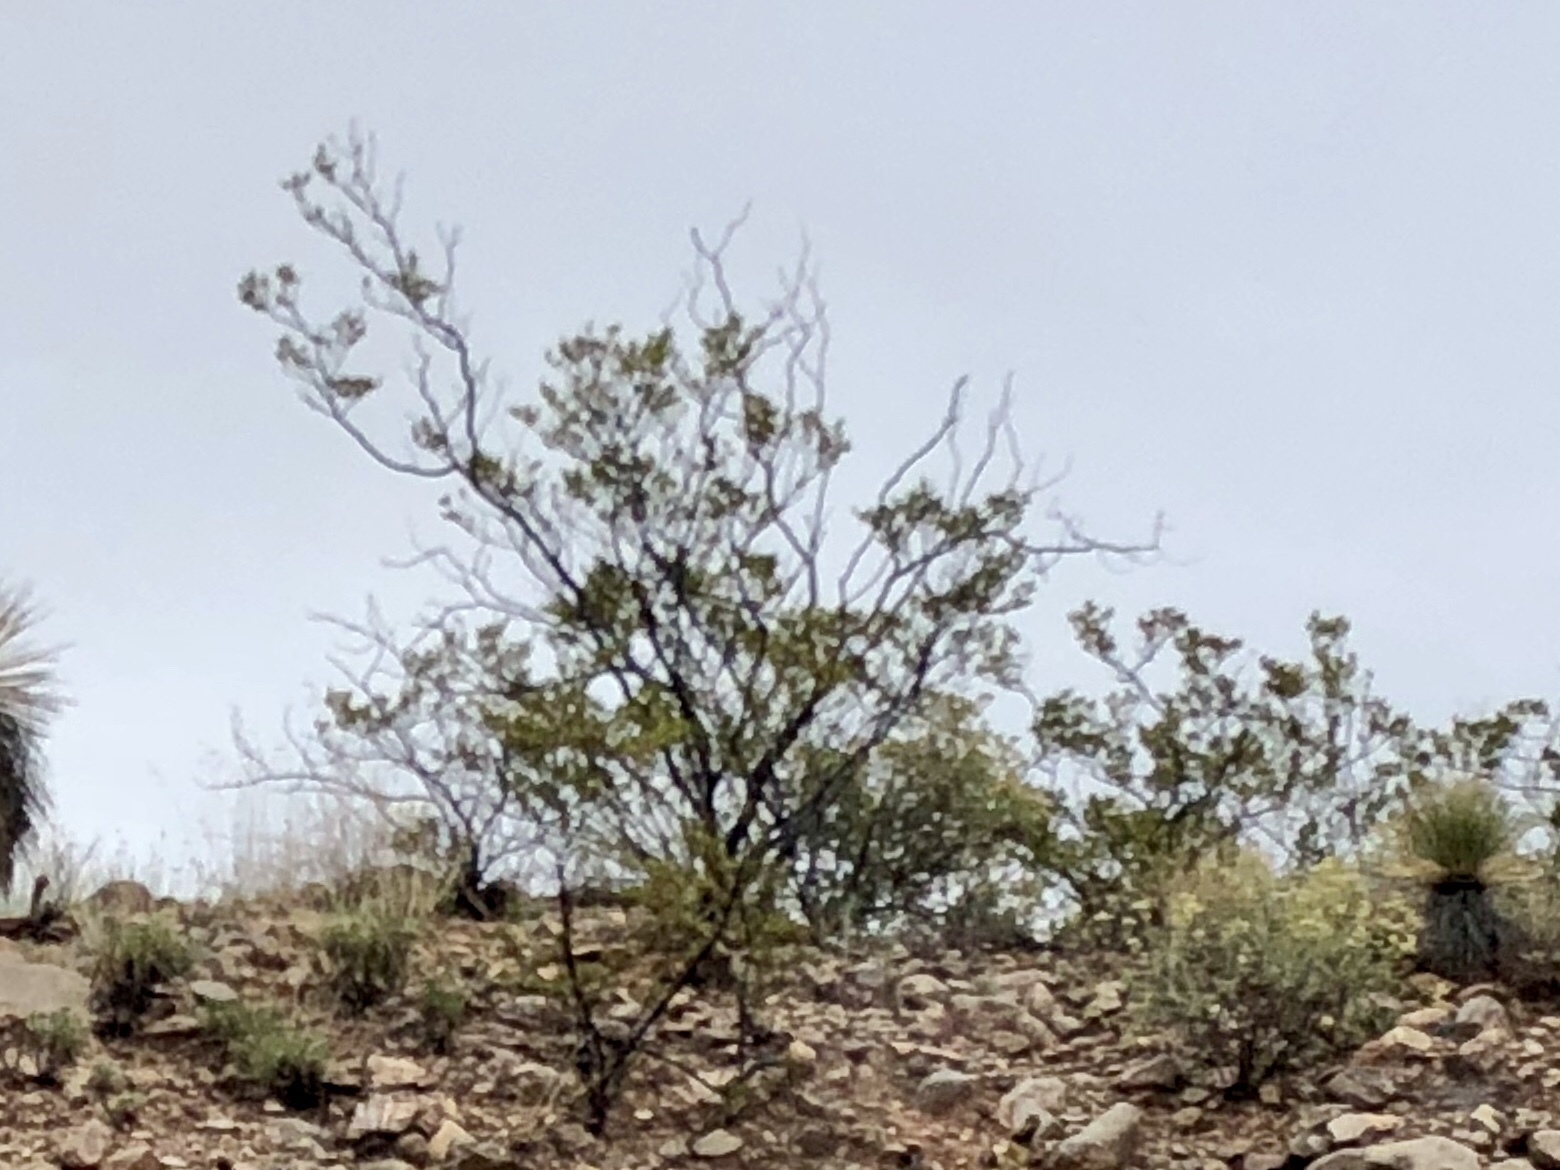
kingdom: Plantae
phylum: Tracheophyta
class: Magnoliopsida
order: Zygophyllales
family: Zygophyllaceae
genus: Larrea
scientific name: Larrea tridentata
